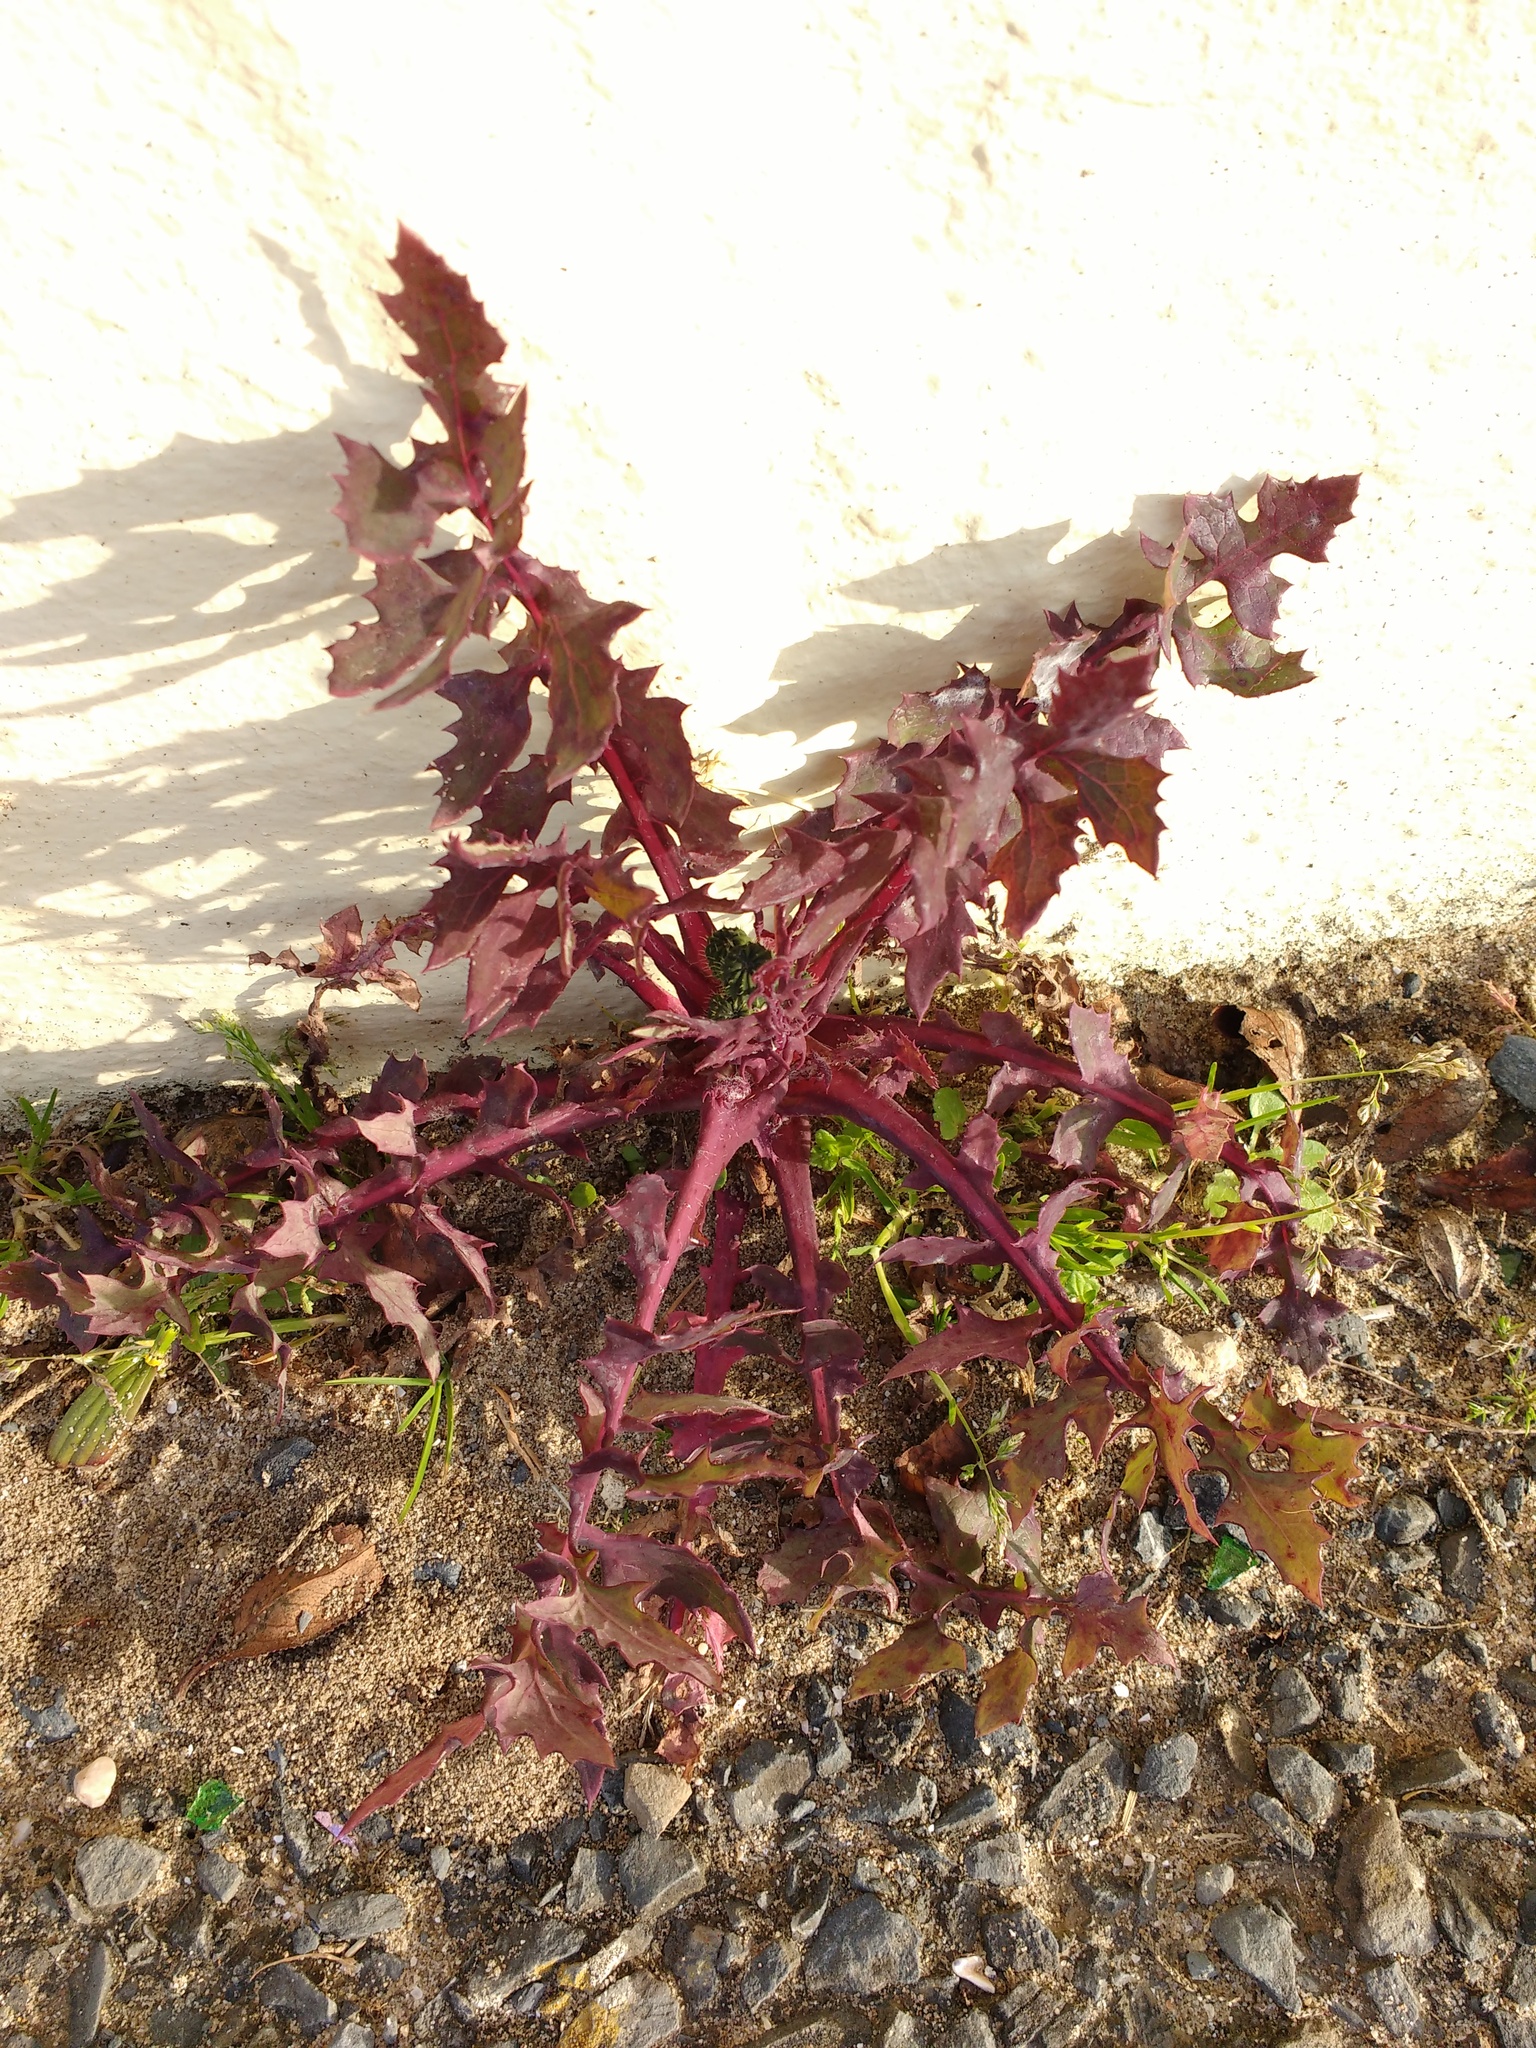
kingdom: Plantae
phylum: Tracheophyta
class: Magnoliopsida
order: Asterales
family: Asteraceae
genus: Sonchus
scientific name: Sonchus oleraceus
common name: Common sowthistle
